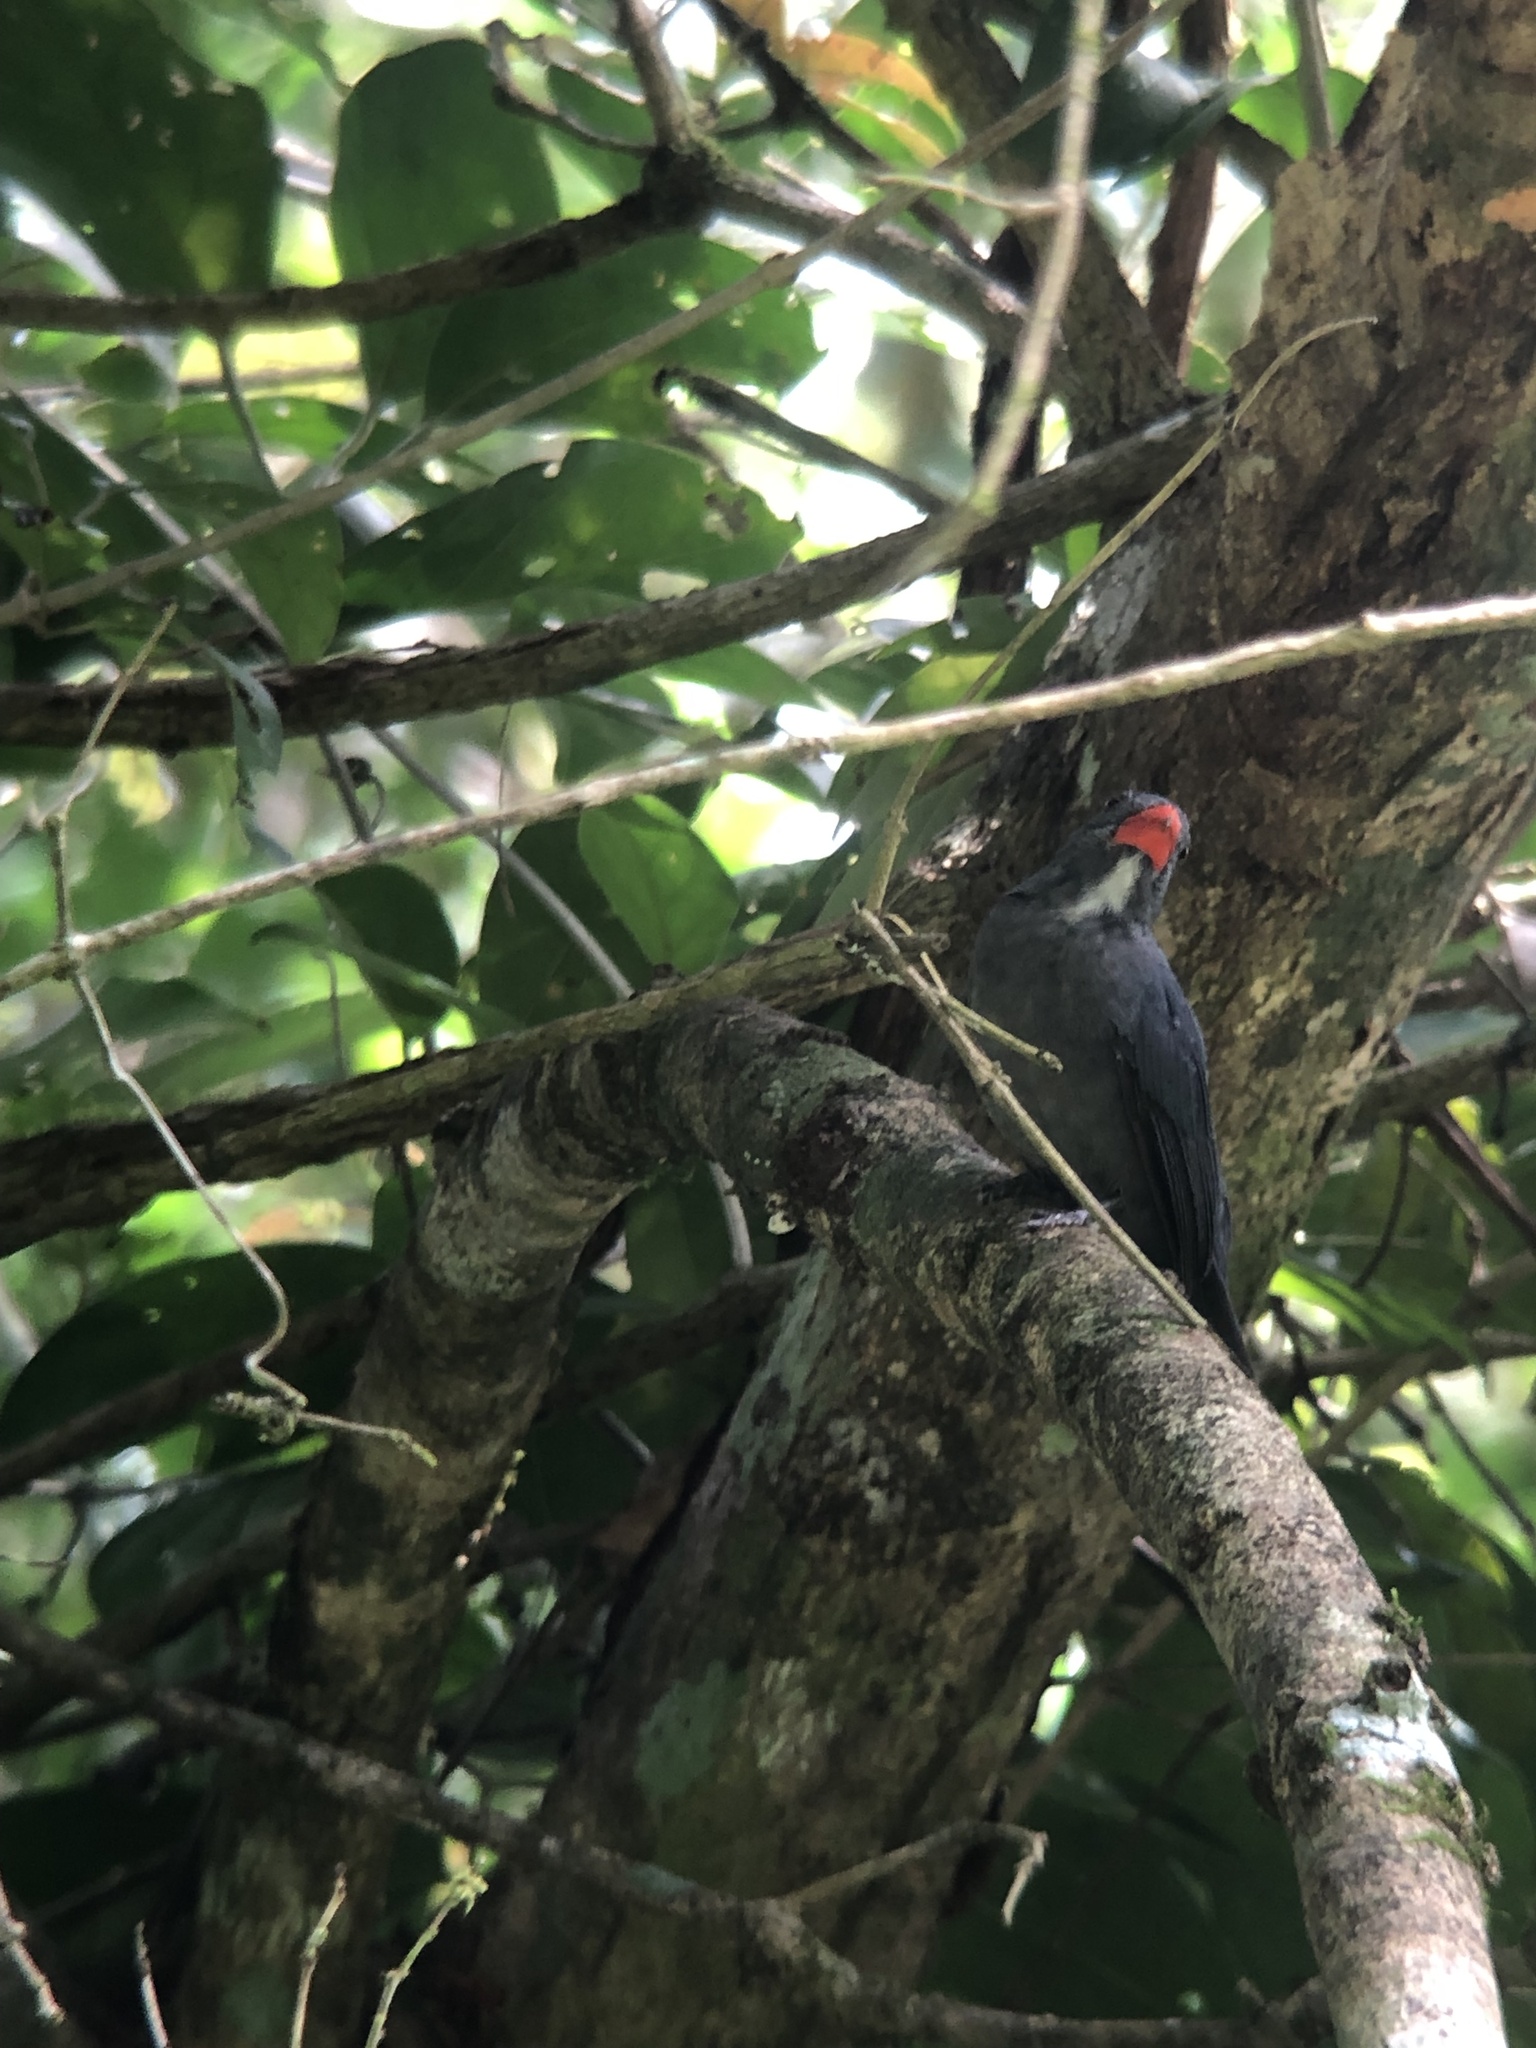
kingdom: Animalia
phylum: Chordata
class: Aves
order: Passeriformes
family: Thraupidae
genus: Saltator
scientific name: Saltator grossus
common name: Slate-colored grosbeak
